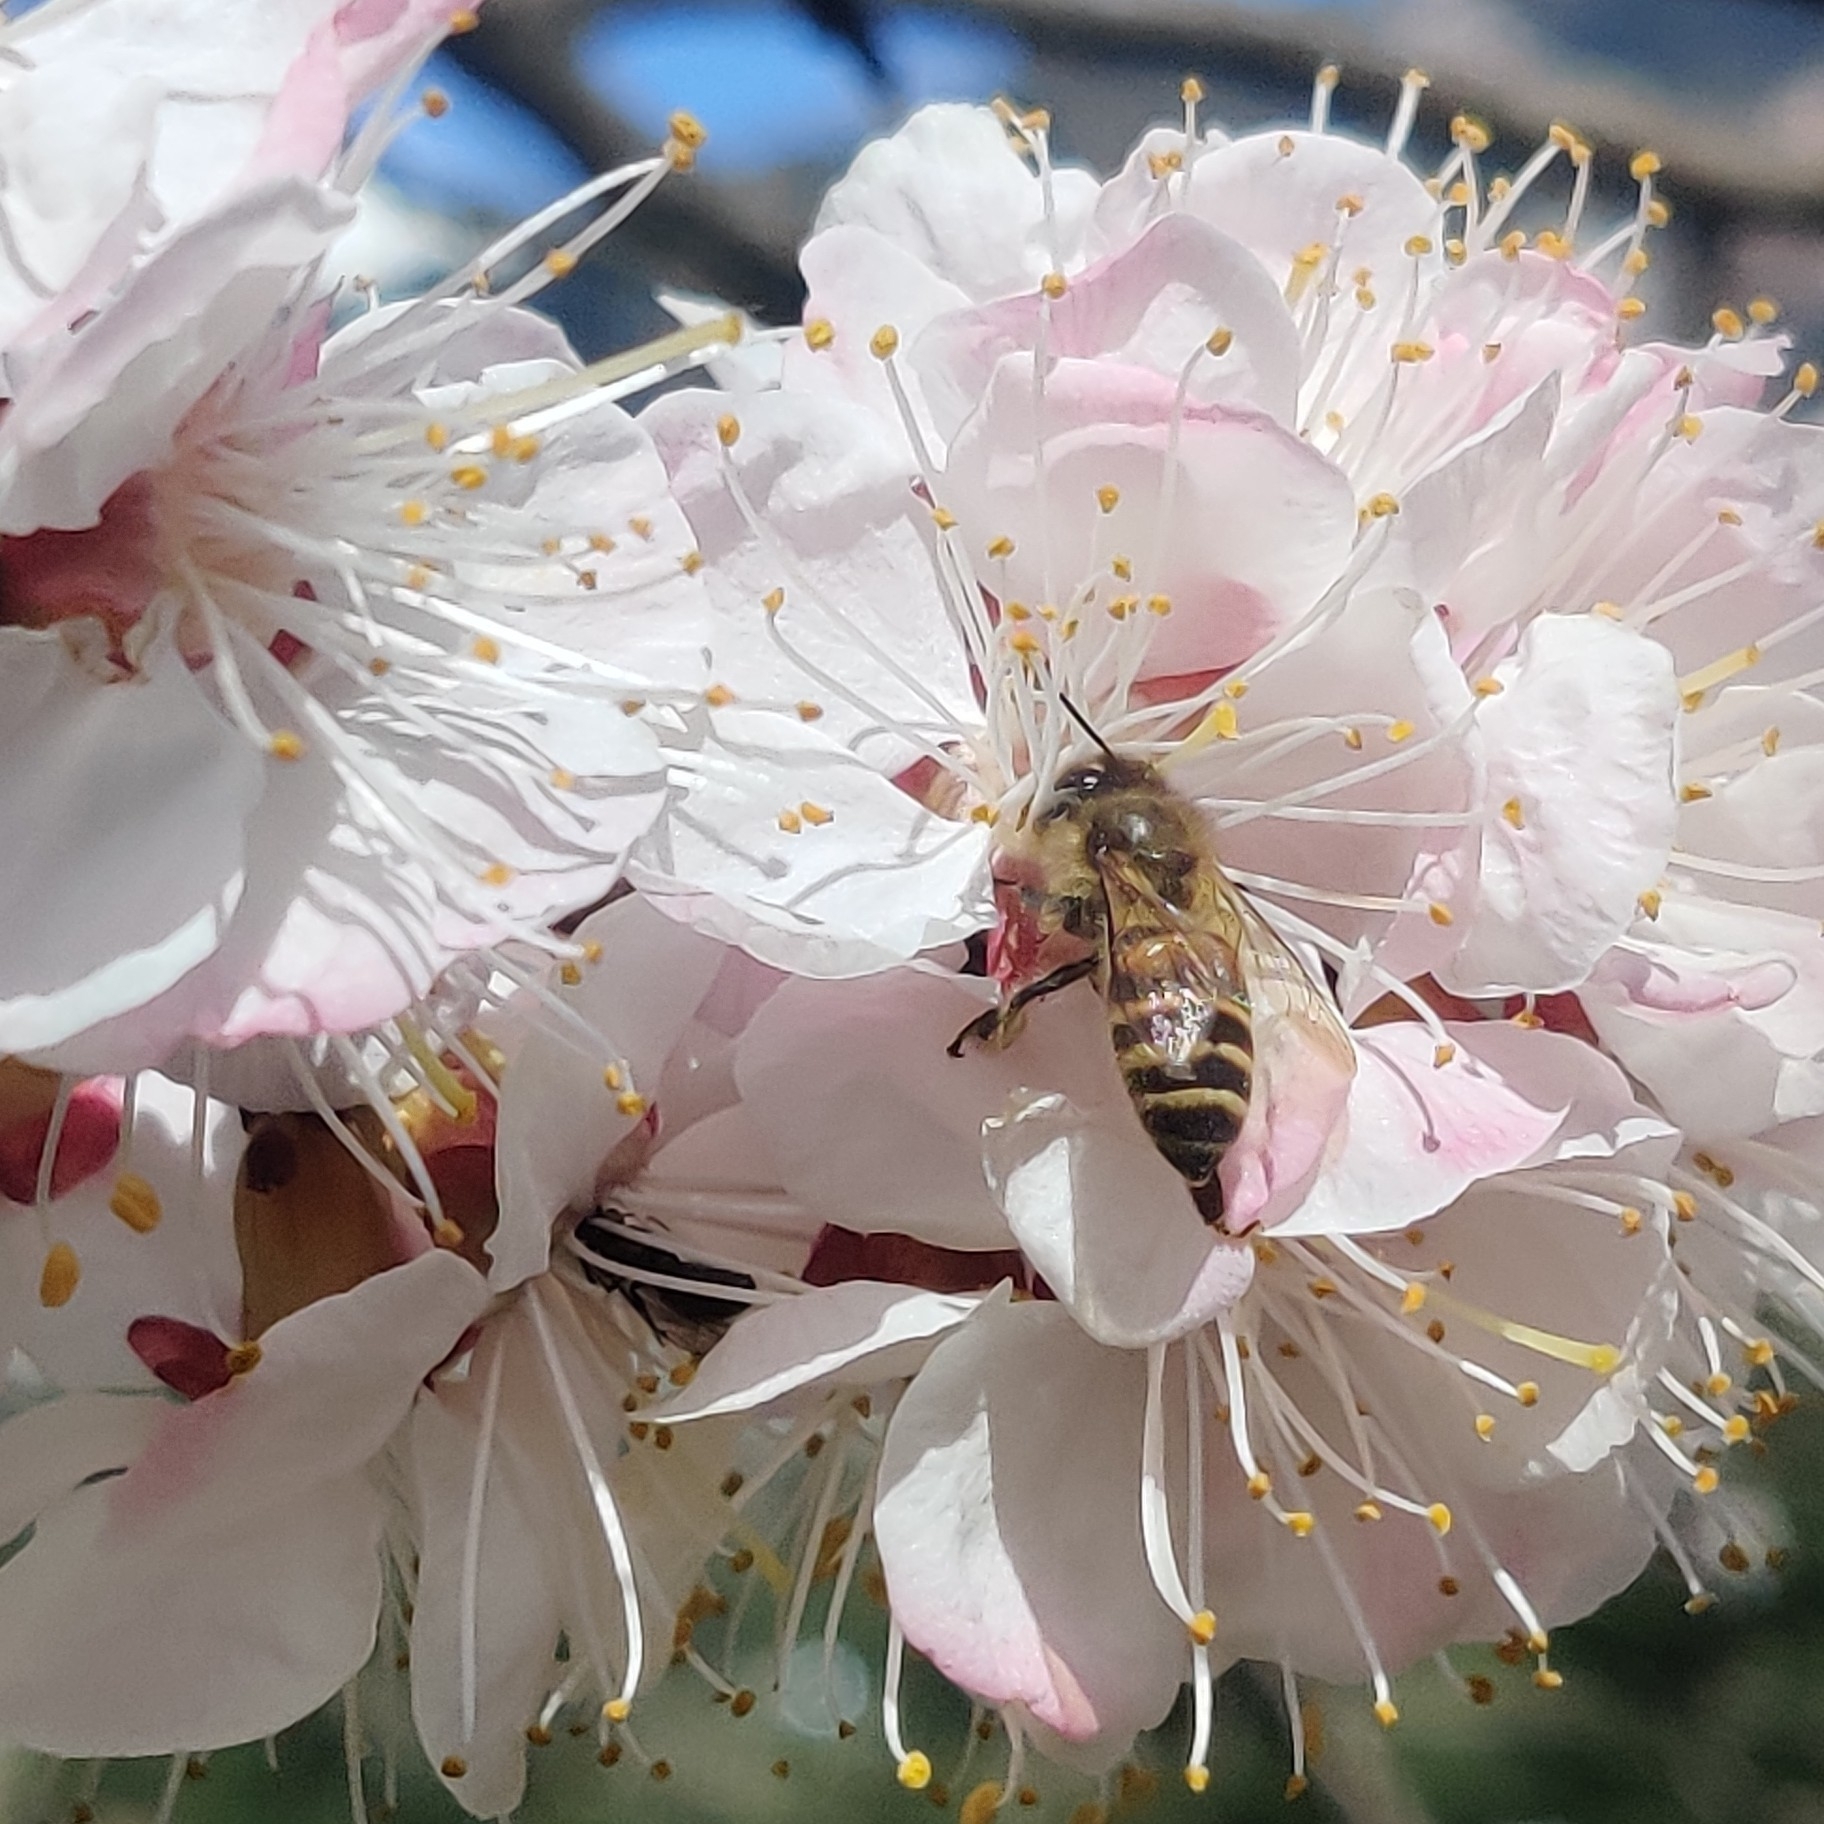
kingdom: Animalia
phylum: Arthropoda
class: Insecta
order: Hymenoptera
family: Apidae
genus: Apis
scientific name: Apis cerana
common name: Honey bee
